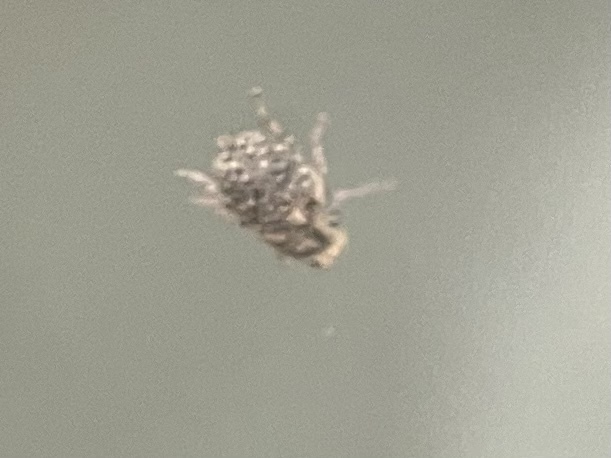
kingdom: Animalia
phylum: Arthropoda
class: Insecta
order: Coleoptera
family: Anthribidae
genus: Araecerus
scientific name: Araecerus fasciculatus
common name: Coffee bean weevil
